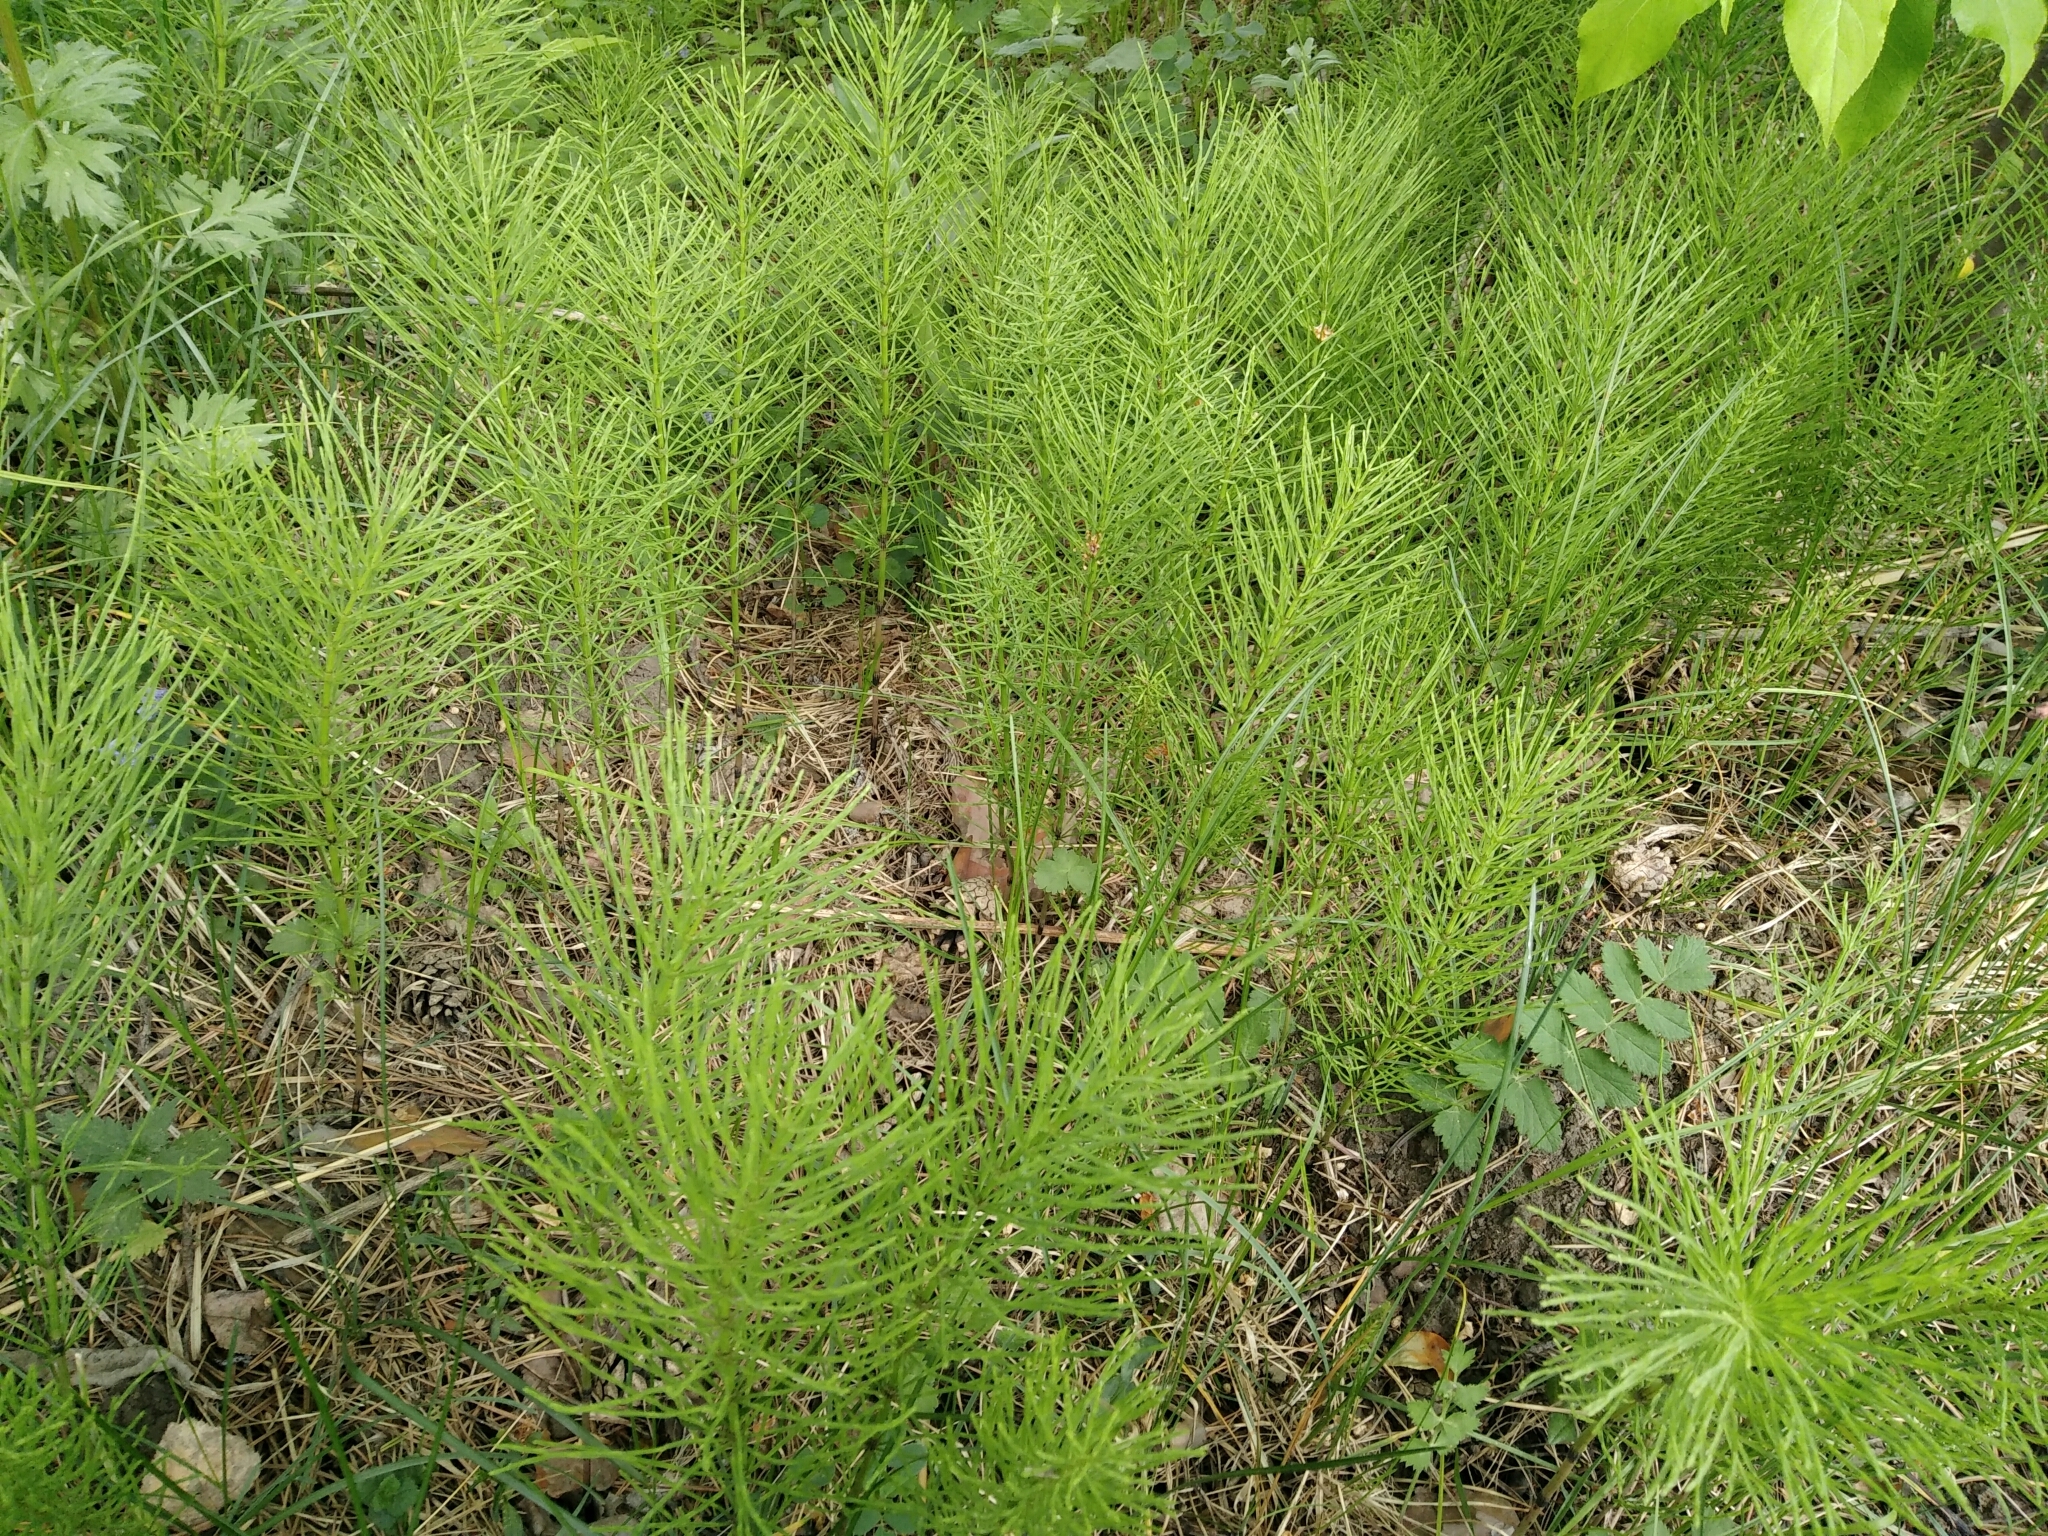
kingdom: Plantae
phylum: Tracheophyta
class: Polypodiopsida
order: Equisetales
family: Equisetaceae
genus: Equisetum
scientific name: Equisetum arvense
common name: Field horsetail
